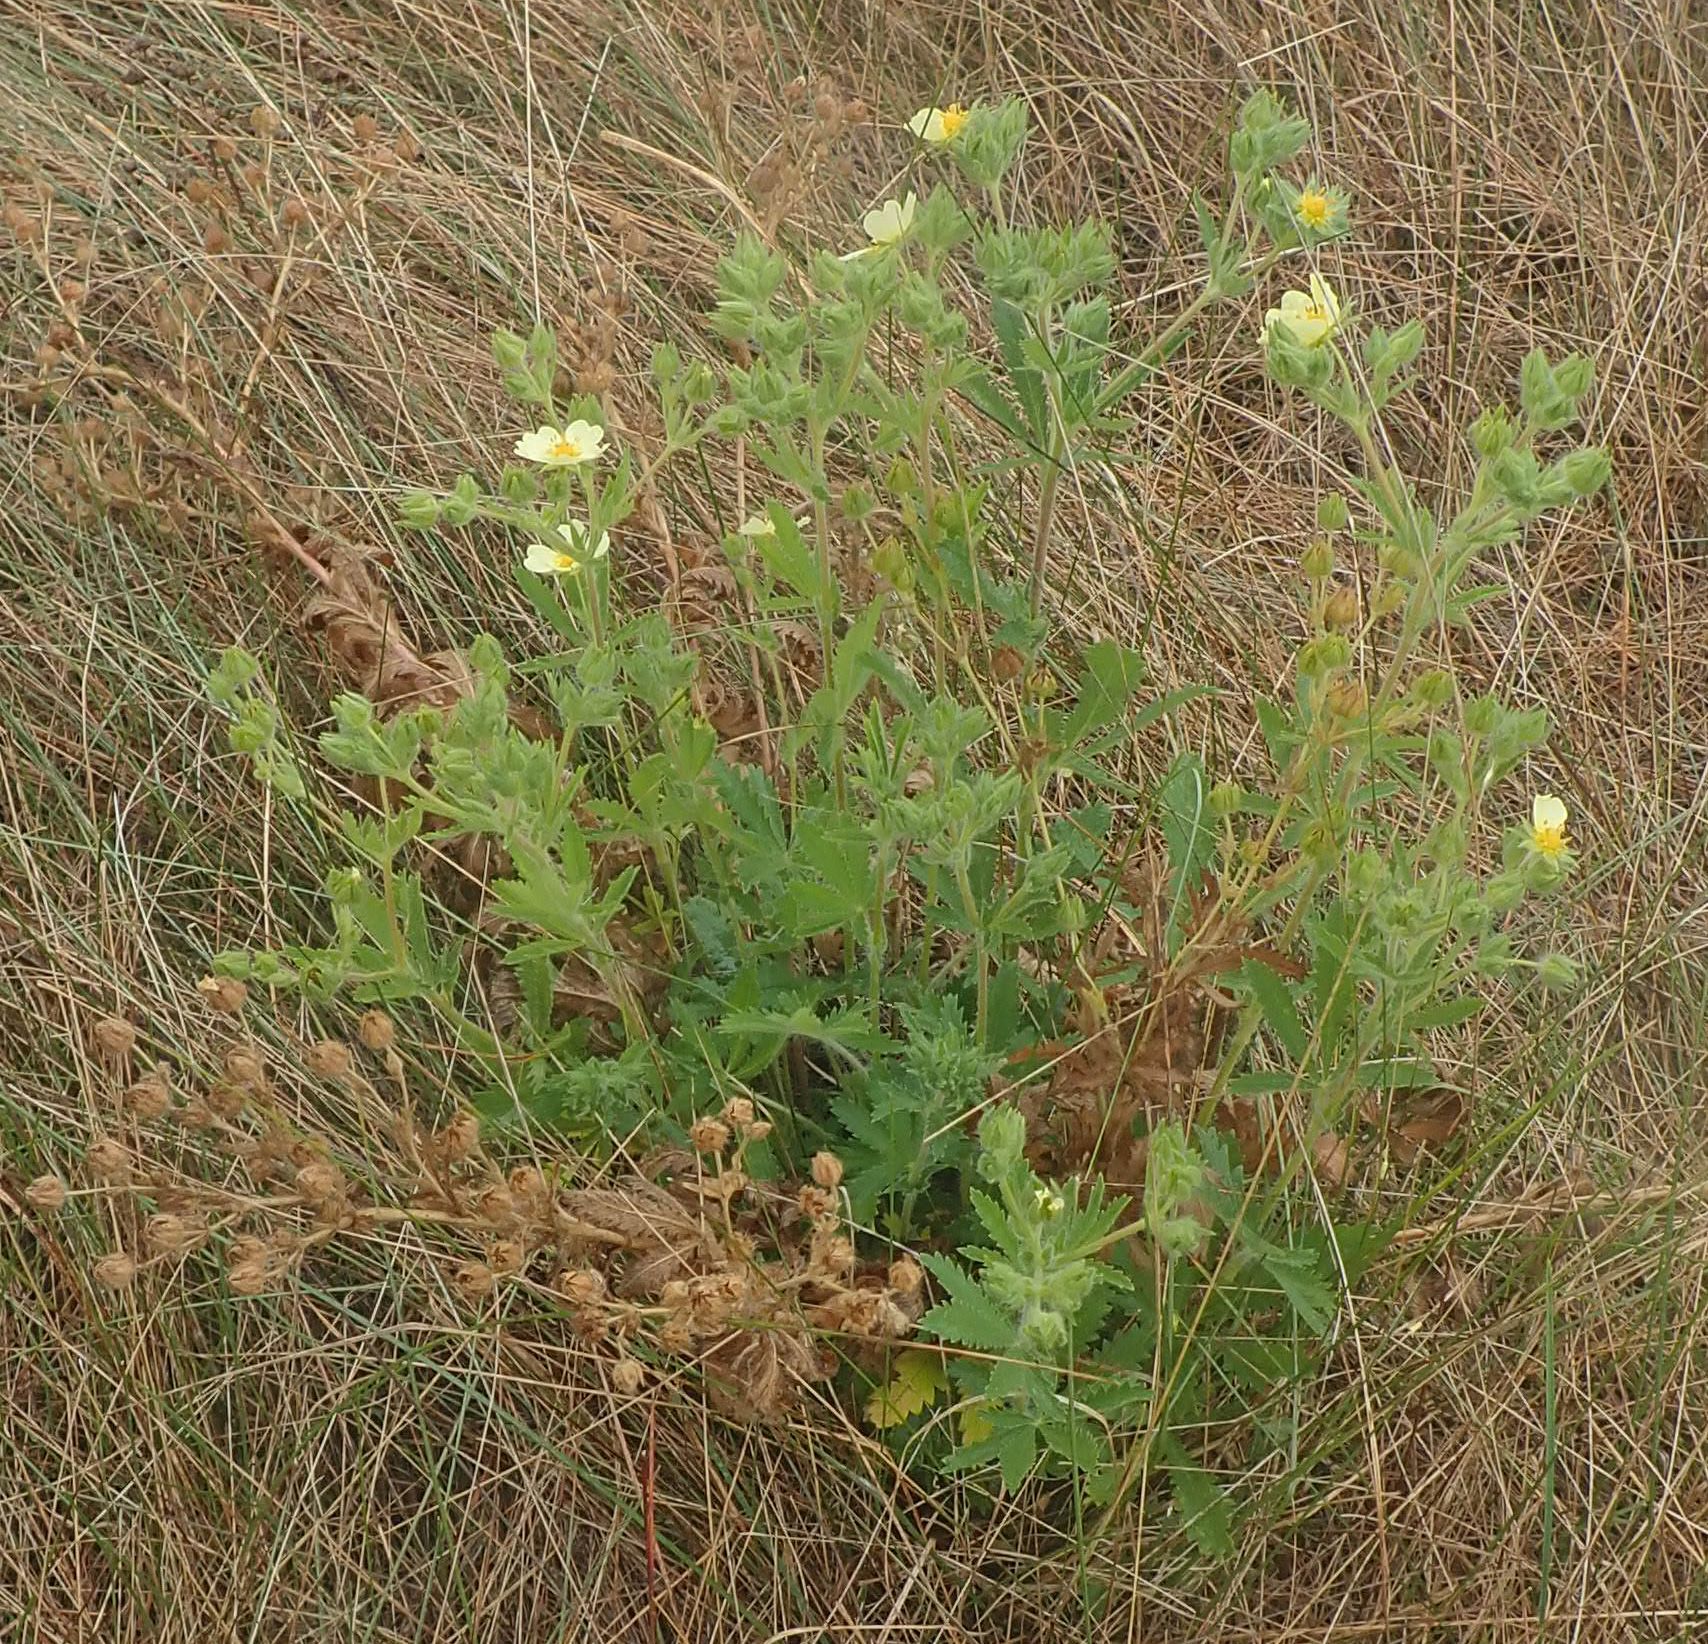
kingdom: Plantae
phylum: Tracheophyta
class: Magnoliopsida
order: Rosales
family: Rosaceae
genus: Potentilla
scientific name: Potentilla recta
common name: Sulphur cinquefoil
